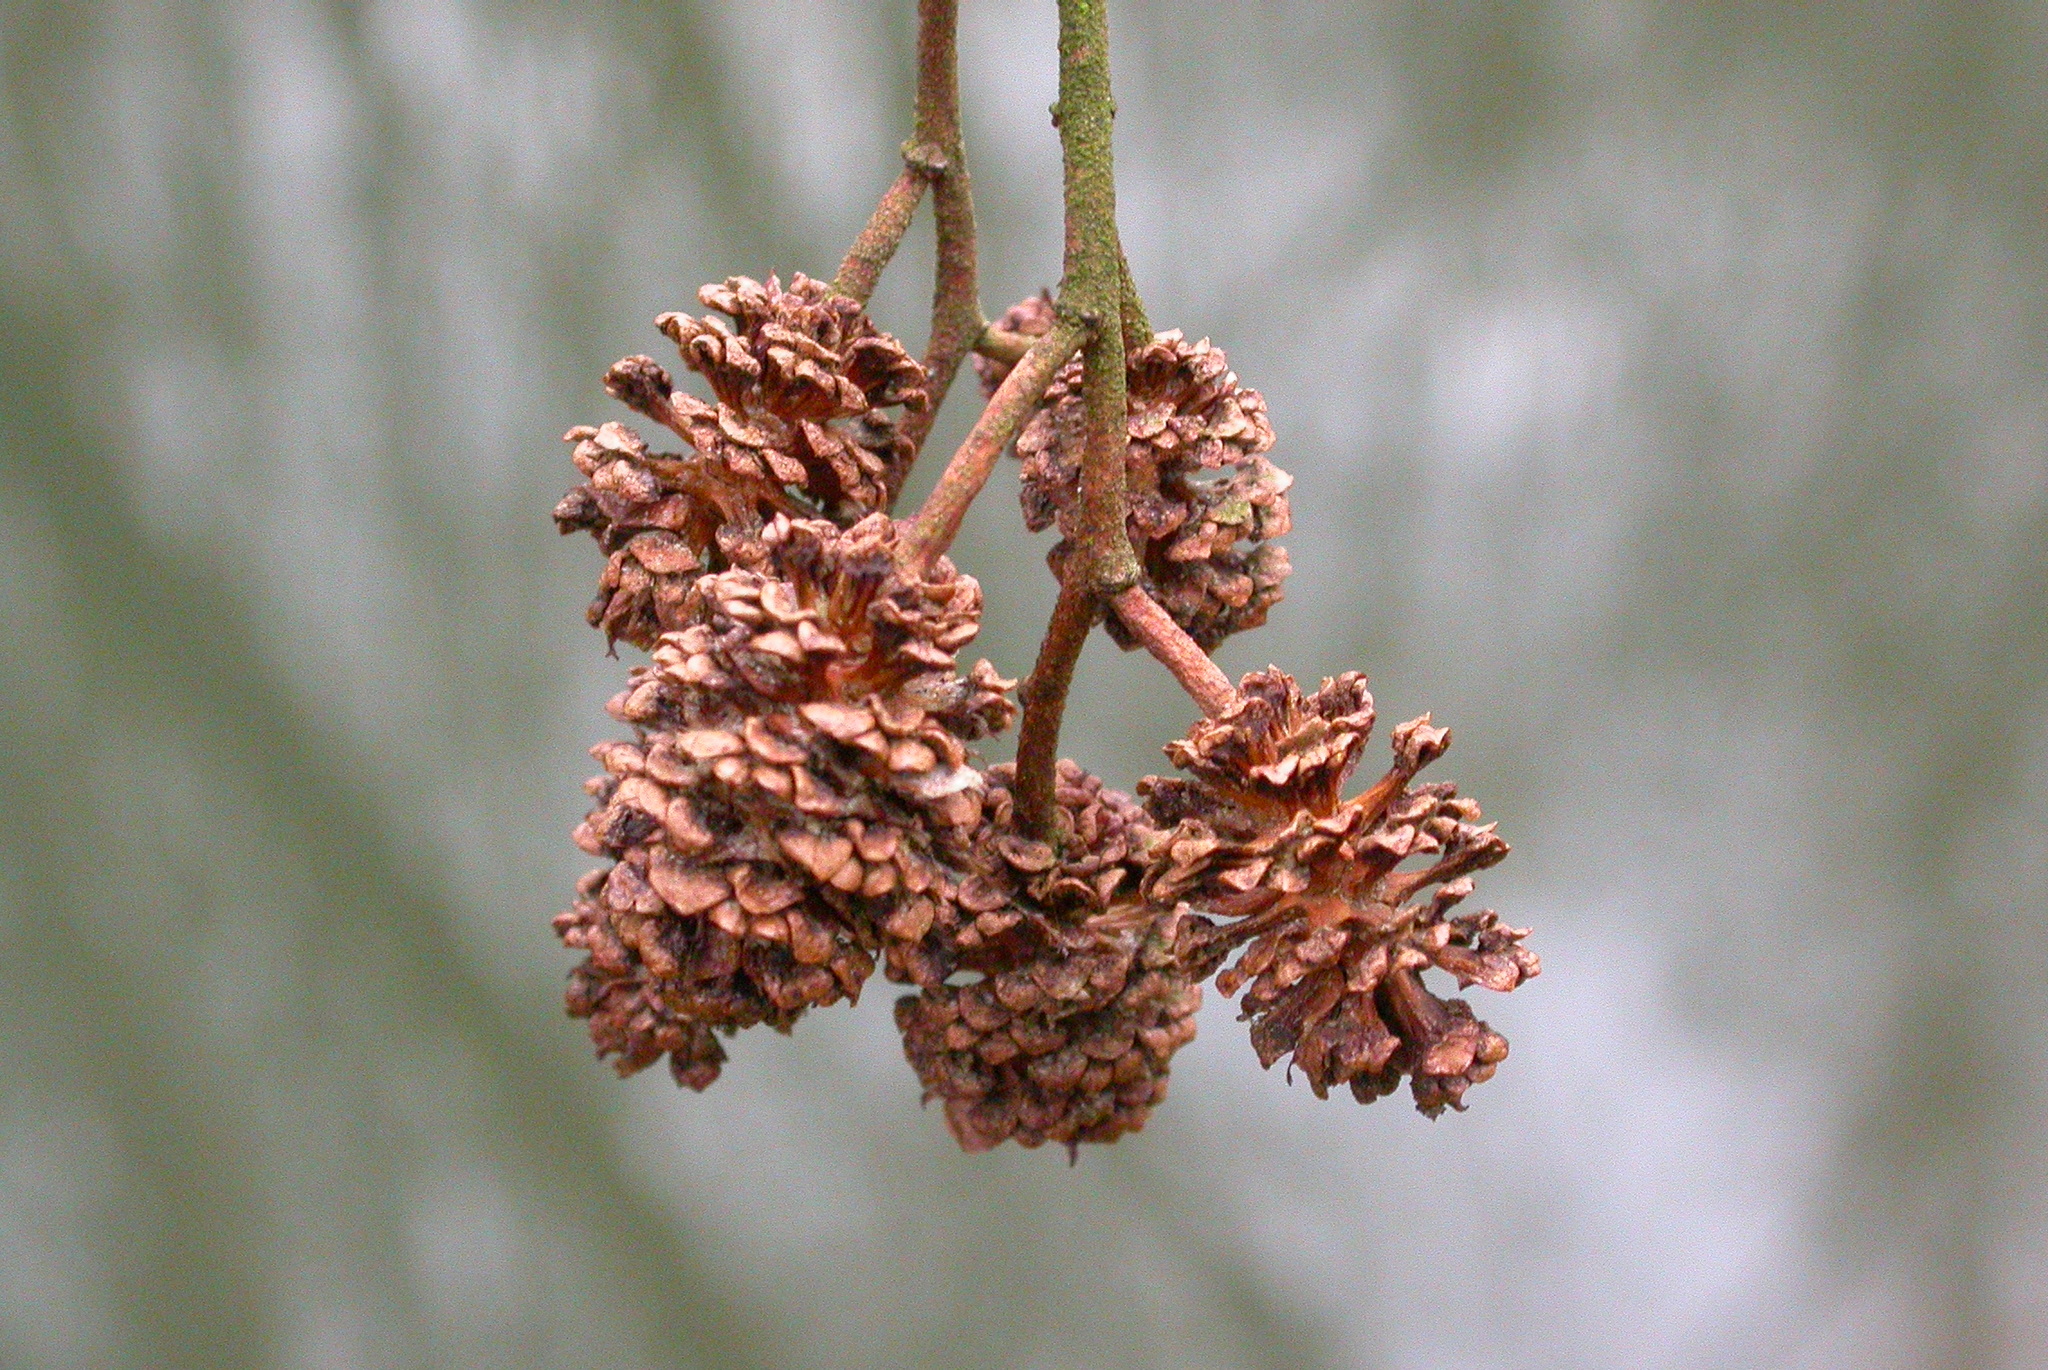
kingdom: Plantae
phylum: Tracheophyta
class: Magnoliopsida
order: Fagales
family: Betulaceae
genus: Alnus
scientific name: Alnus glutinosa
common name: Black alder
